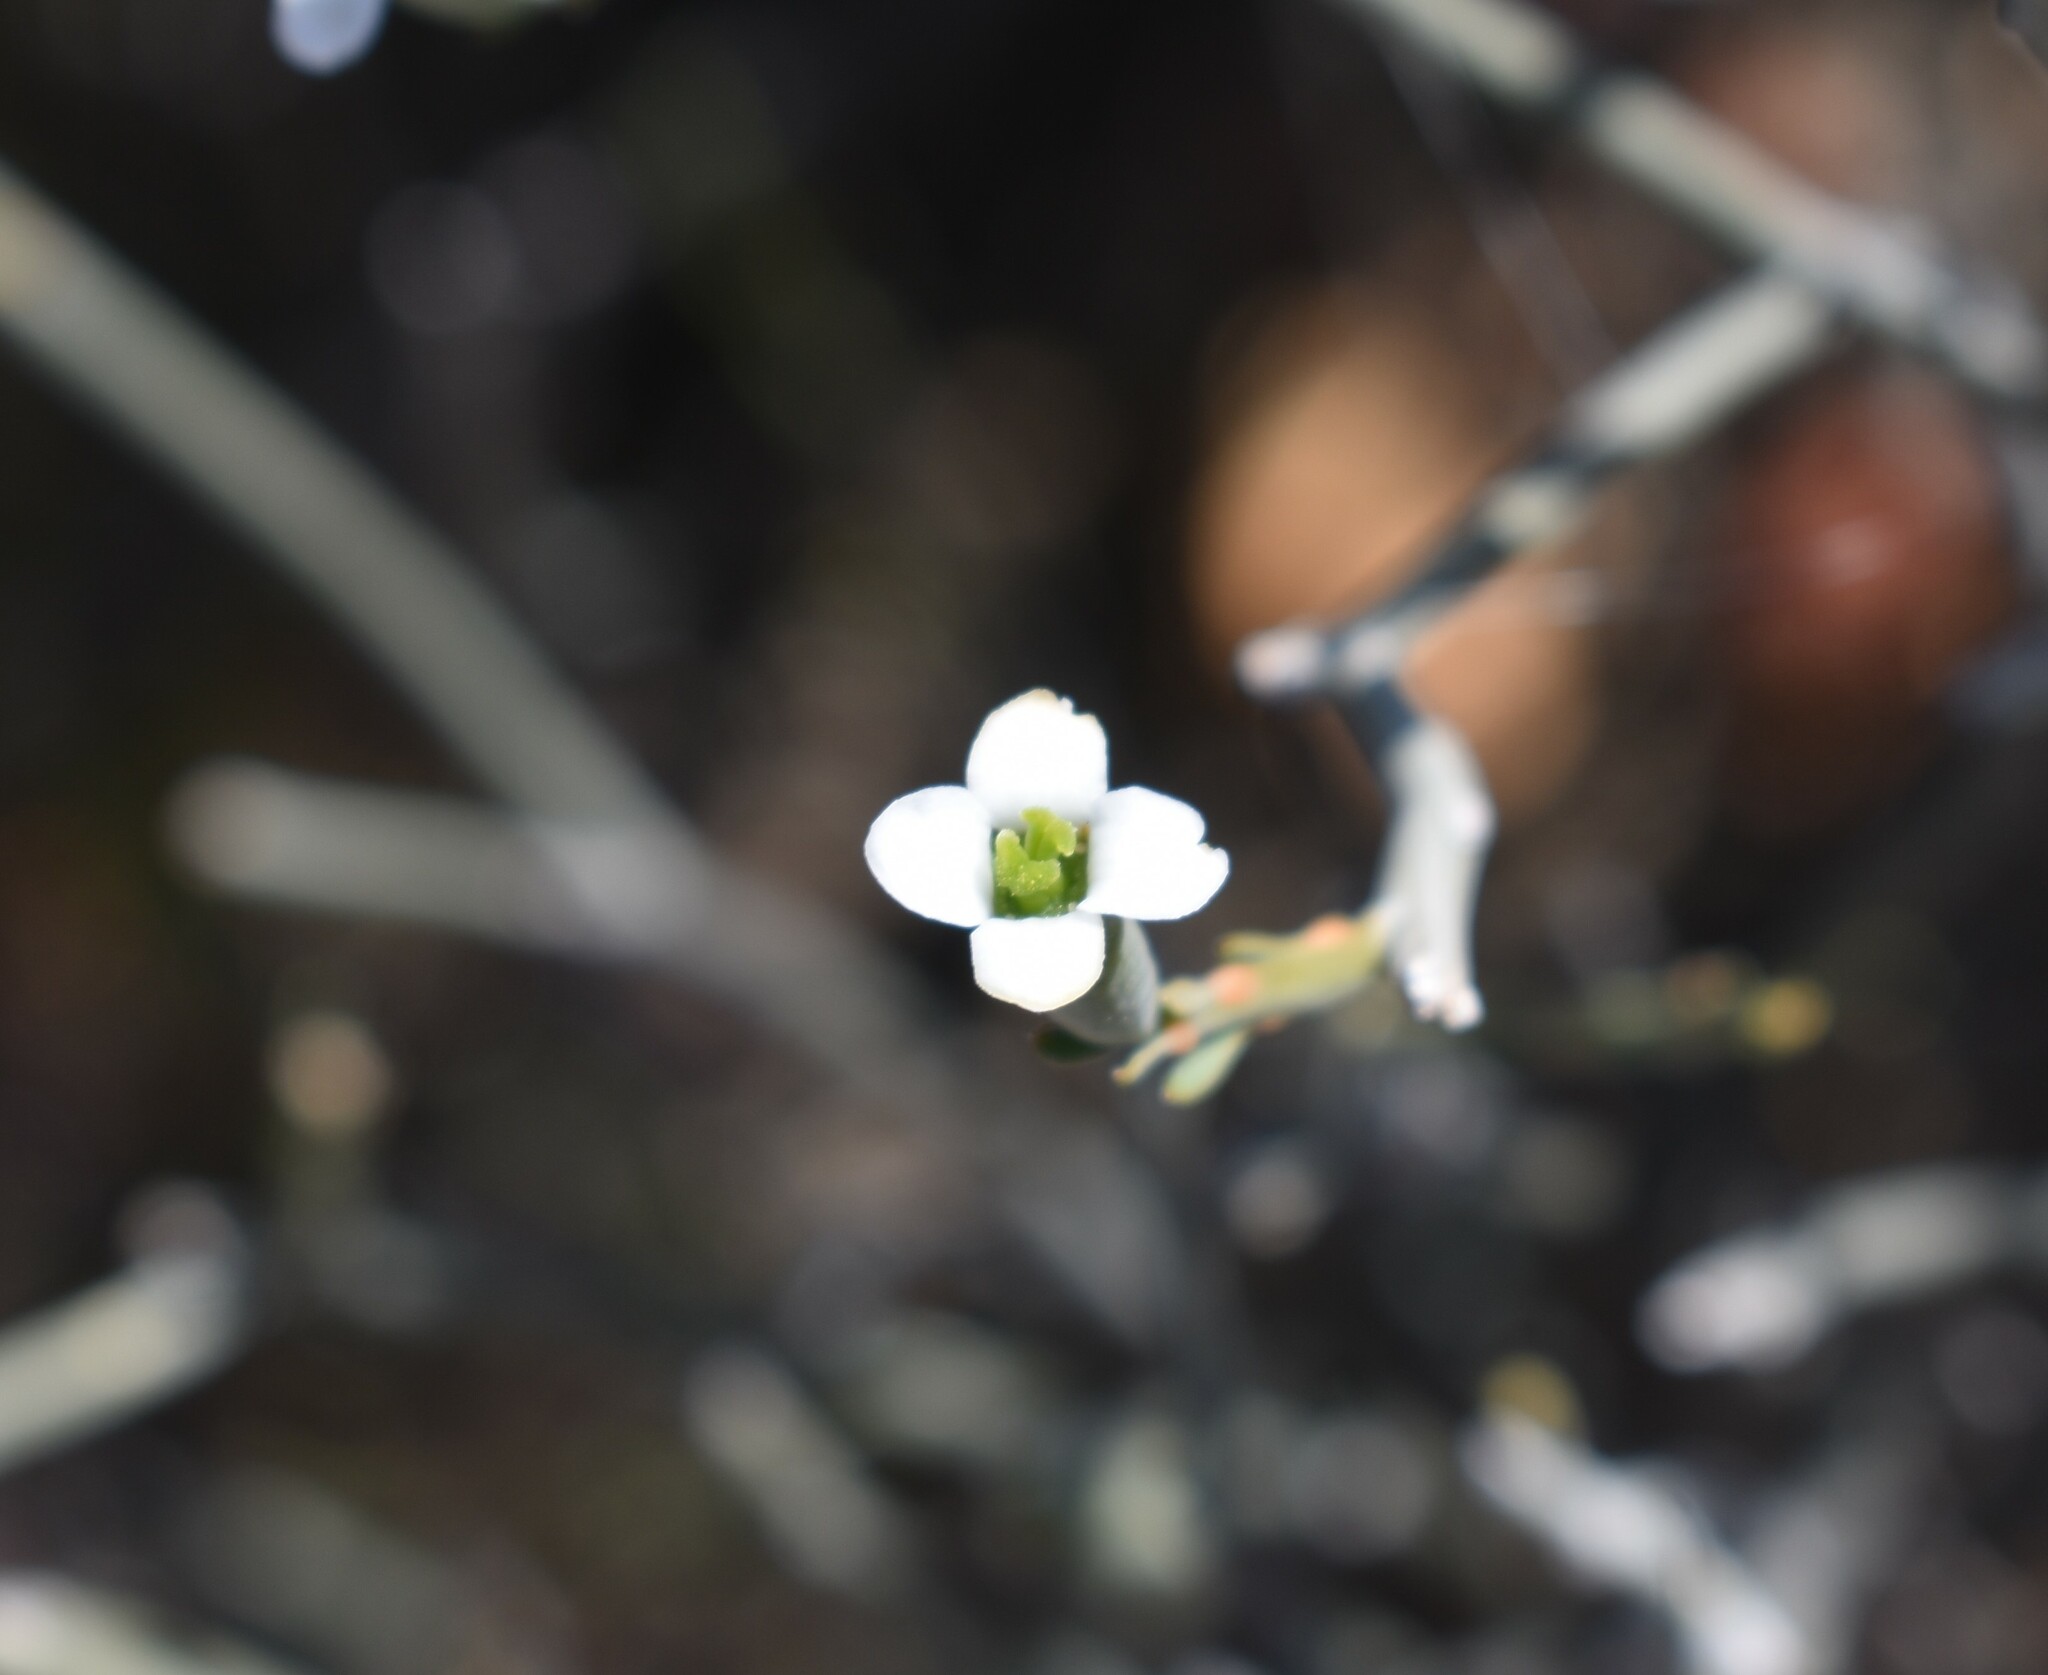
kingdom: Plantae
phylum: Tracheophyta
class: Magnoliopsida
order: Solanales
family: Montiniaceae
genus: Montinia
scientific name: Montinia caryophyllacea
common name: Wild clove-bush
